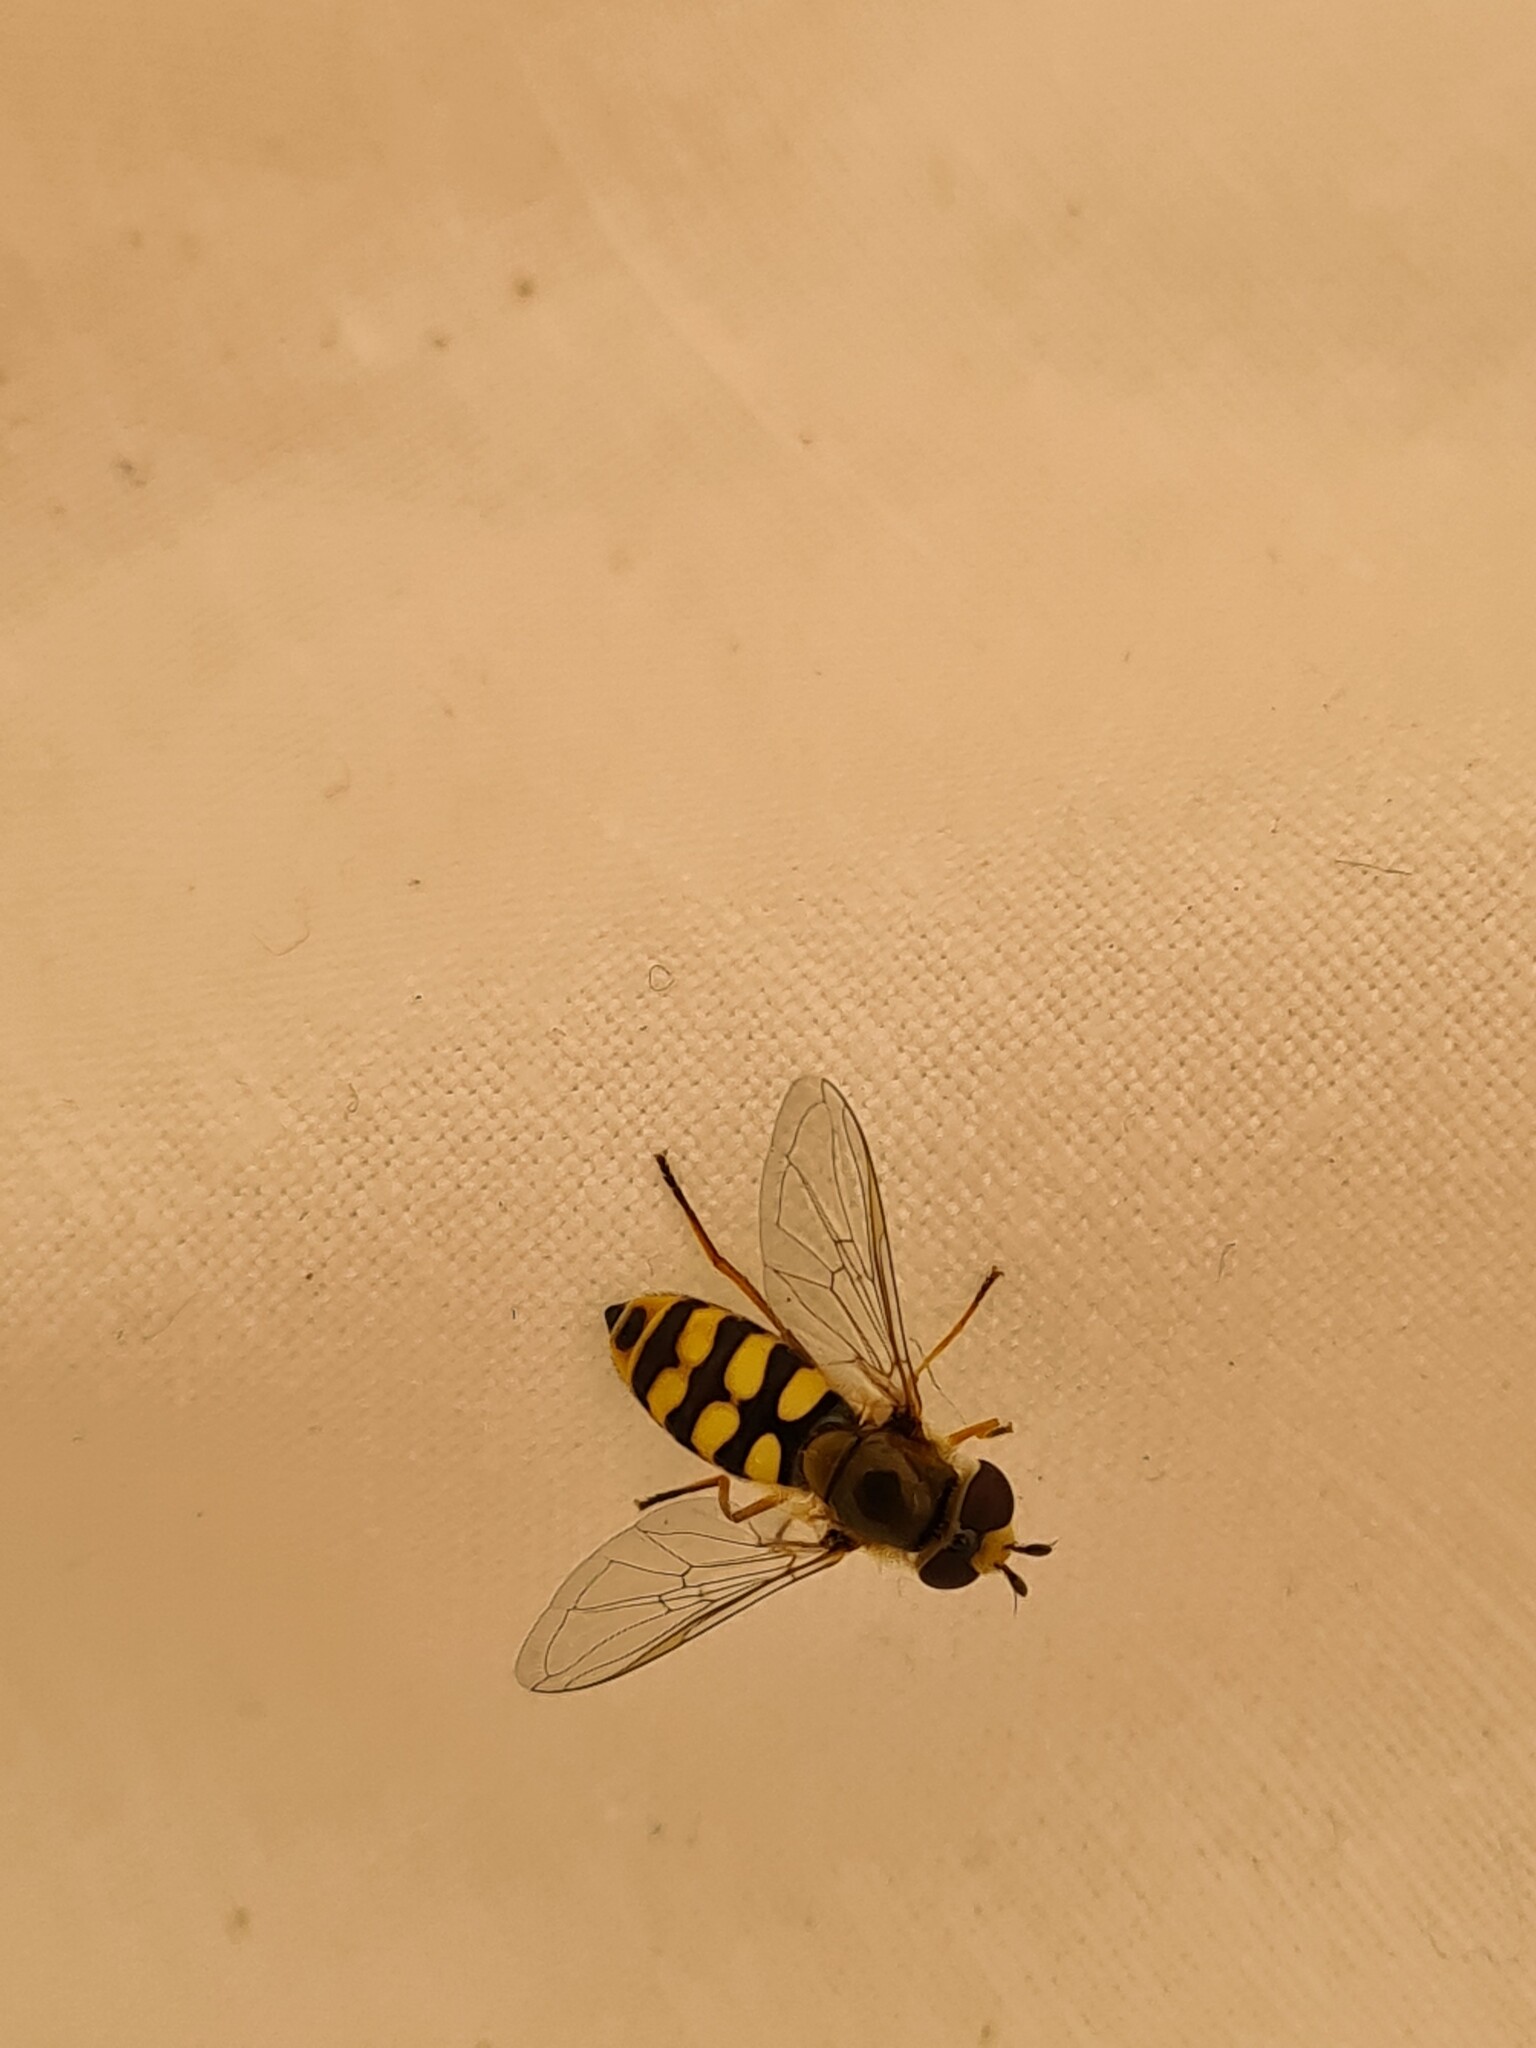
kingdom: Animalia
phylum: Arthropoda
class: Insecta
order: Diptera
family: Syrphidae
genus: Eupeodes
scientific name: Eupeodes corollae
